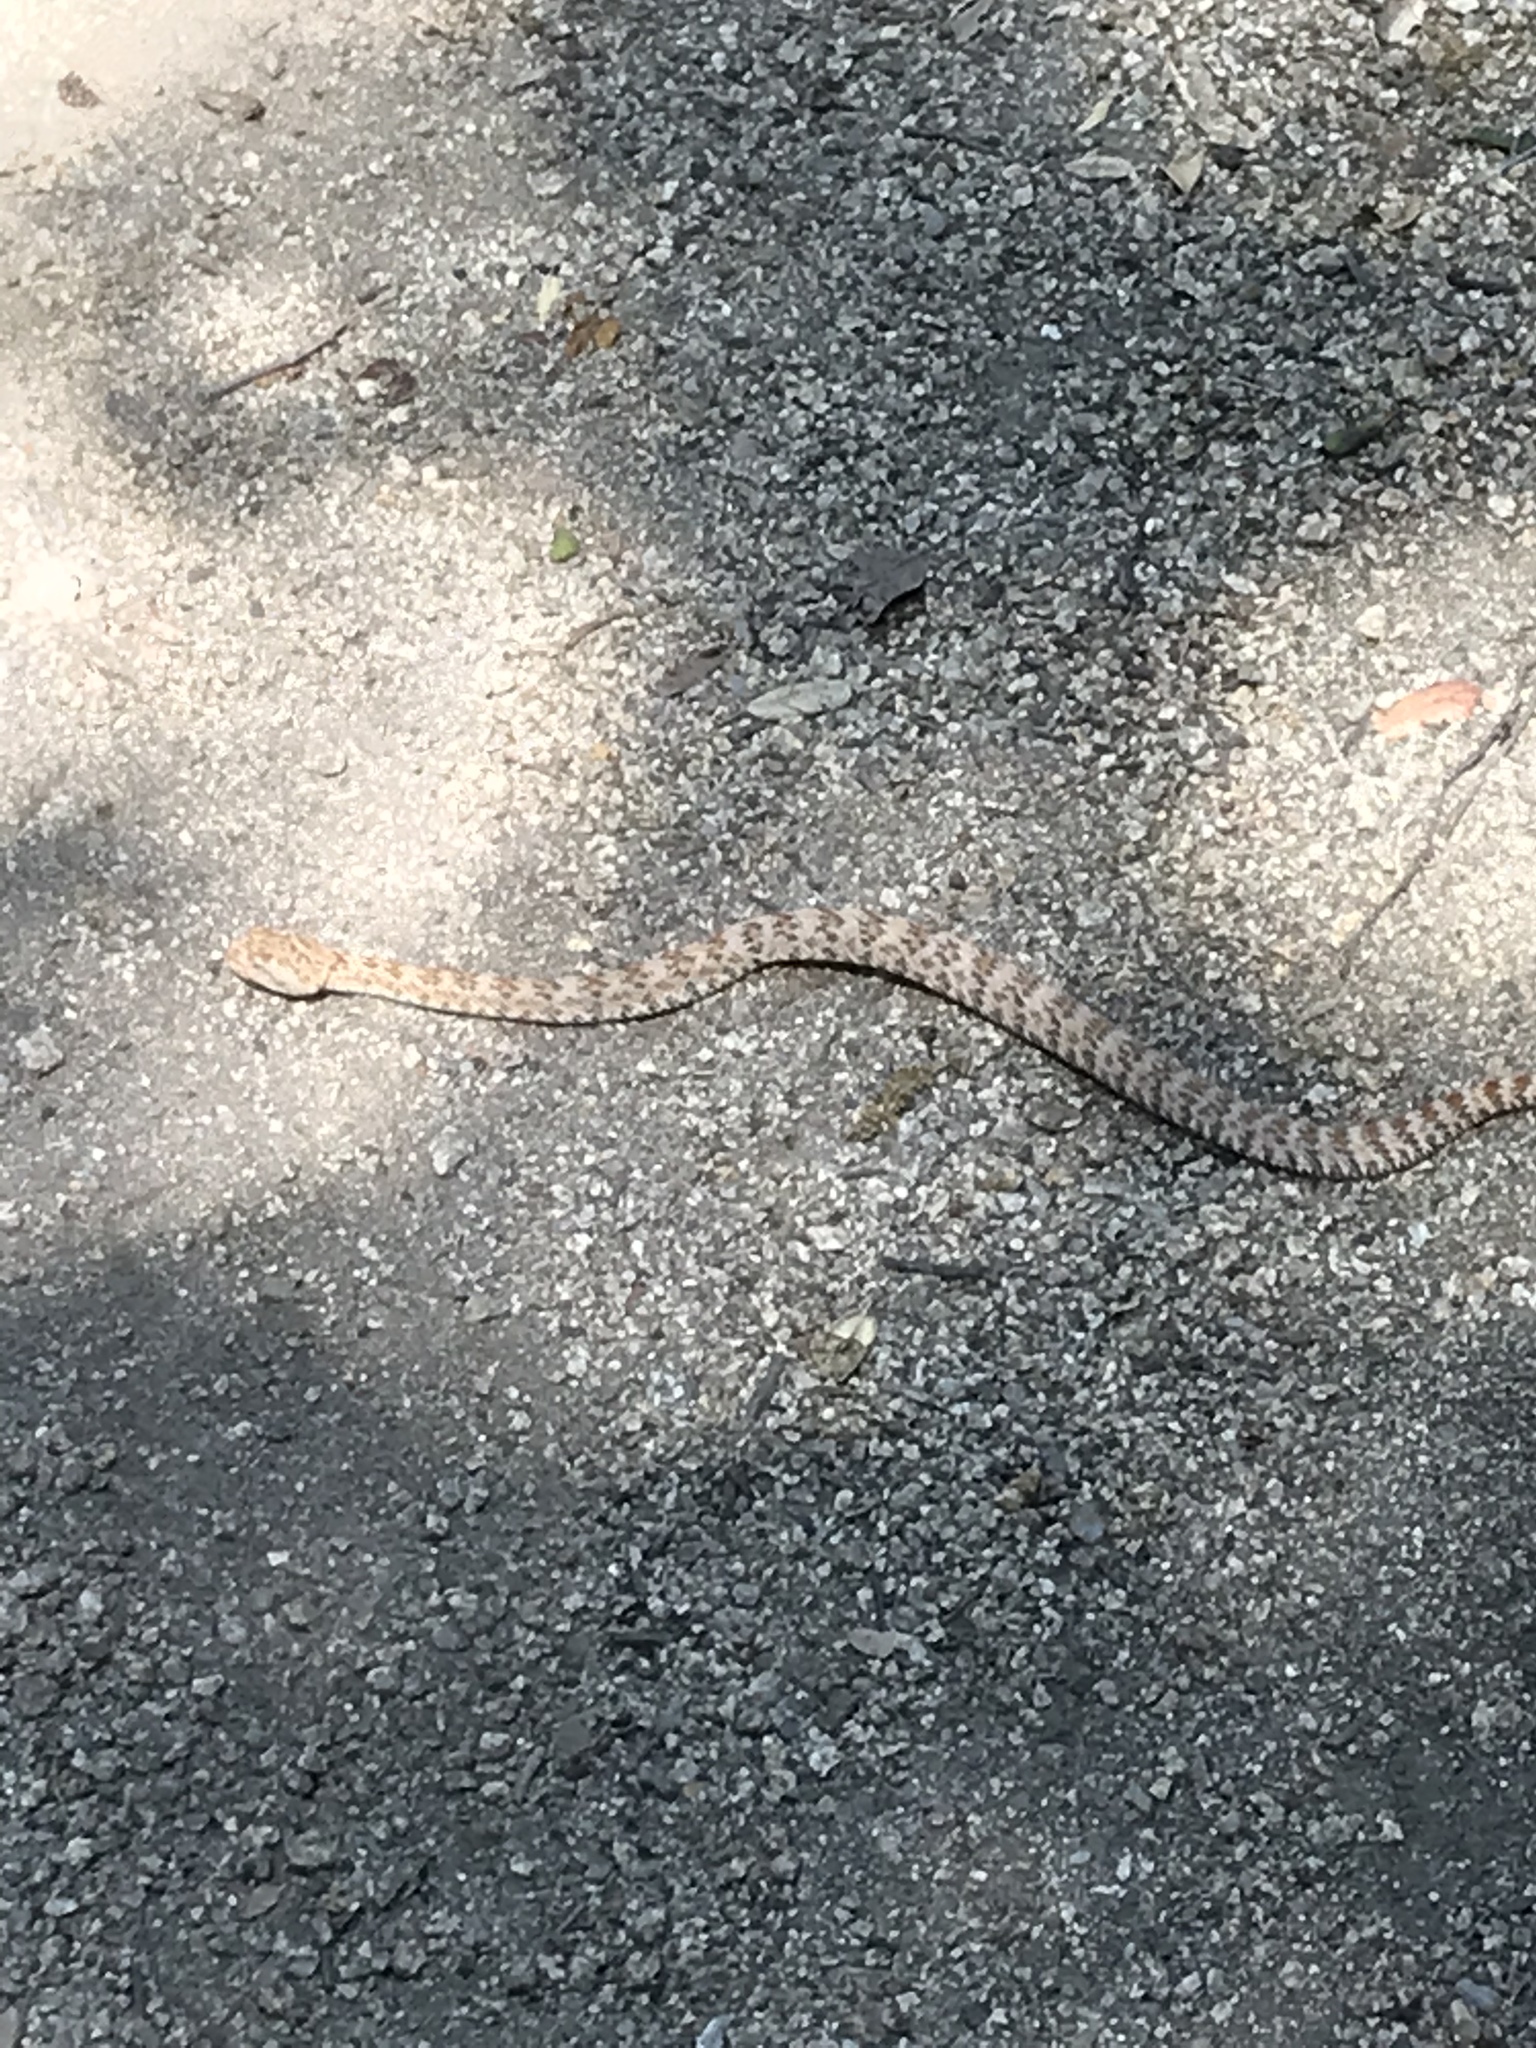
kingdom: Animalia
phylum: Chordata
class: Squamata
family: Viperidae
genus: Crotalus
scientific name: Crotalus pyrrhus
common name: Southwestern speckled rattlesnake
